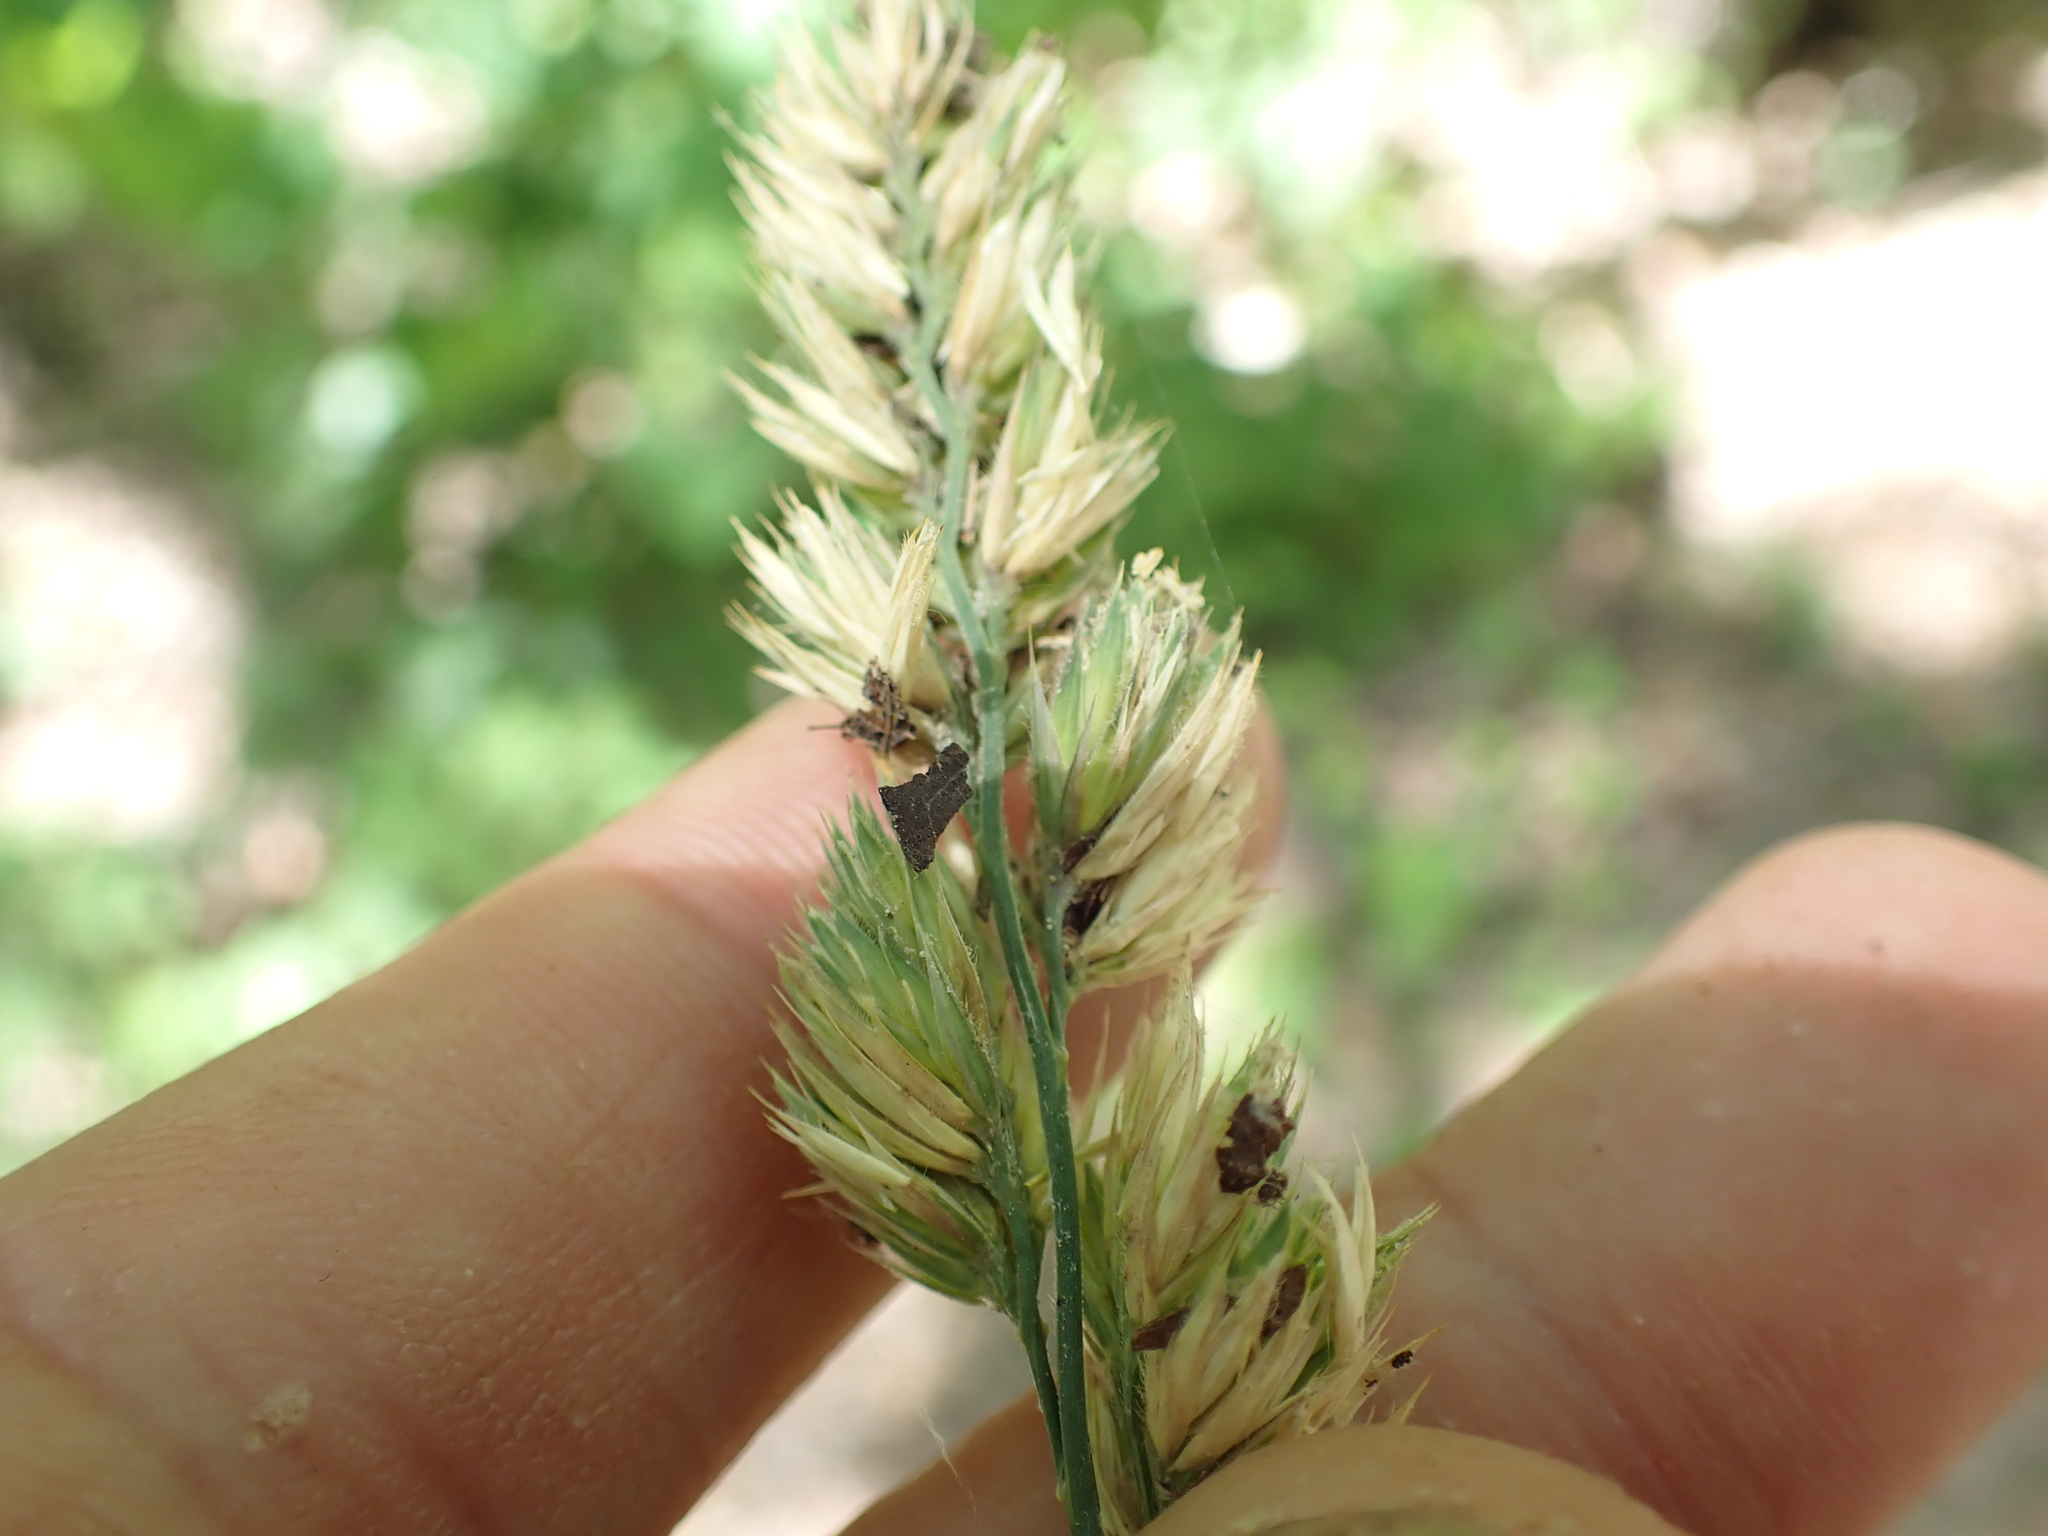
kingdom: Plantae
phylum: Tracheophyta
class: Liliopsida
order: Poales
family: Poaceae
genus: Dactylis
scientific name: Dactylis glomerata
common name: Orchardgrass
